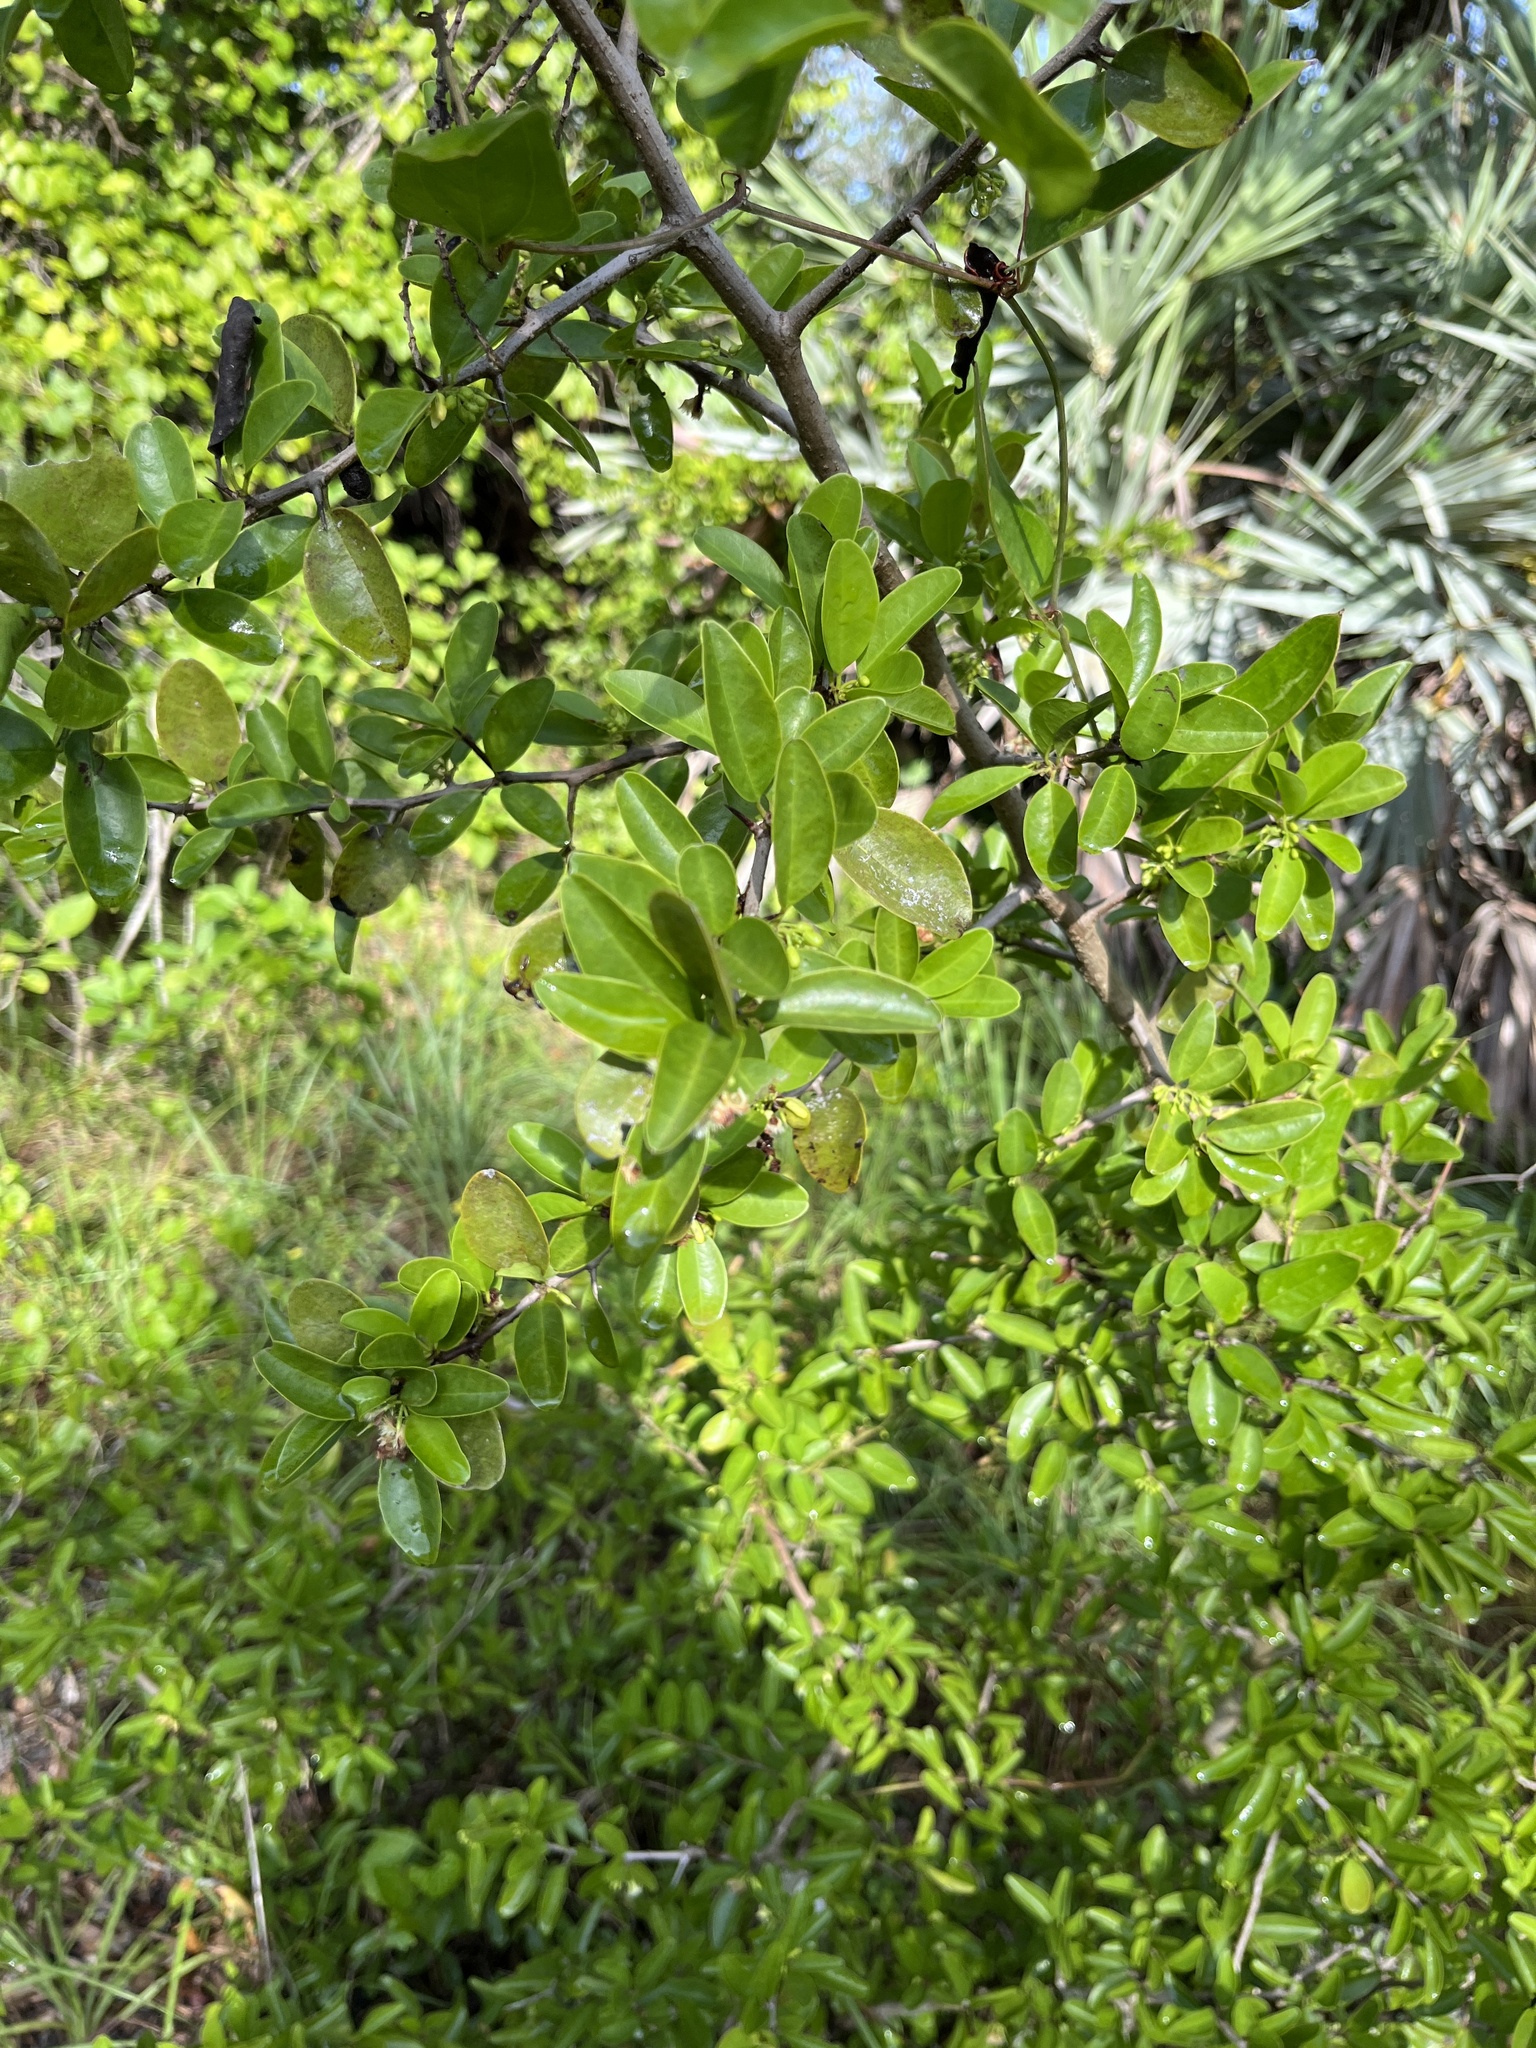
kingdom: Plantae
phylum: Tracheophyta
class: Magnoliopsida
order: Santalales
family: Ximeniaceae
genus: Ximenia
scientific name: Ximenia americana
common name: Tallowwood
